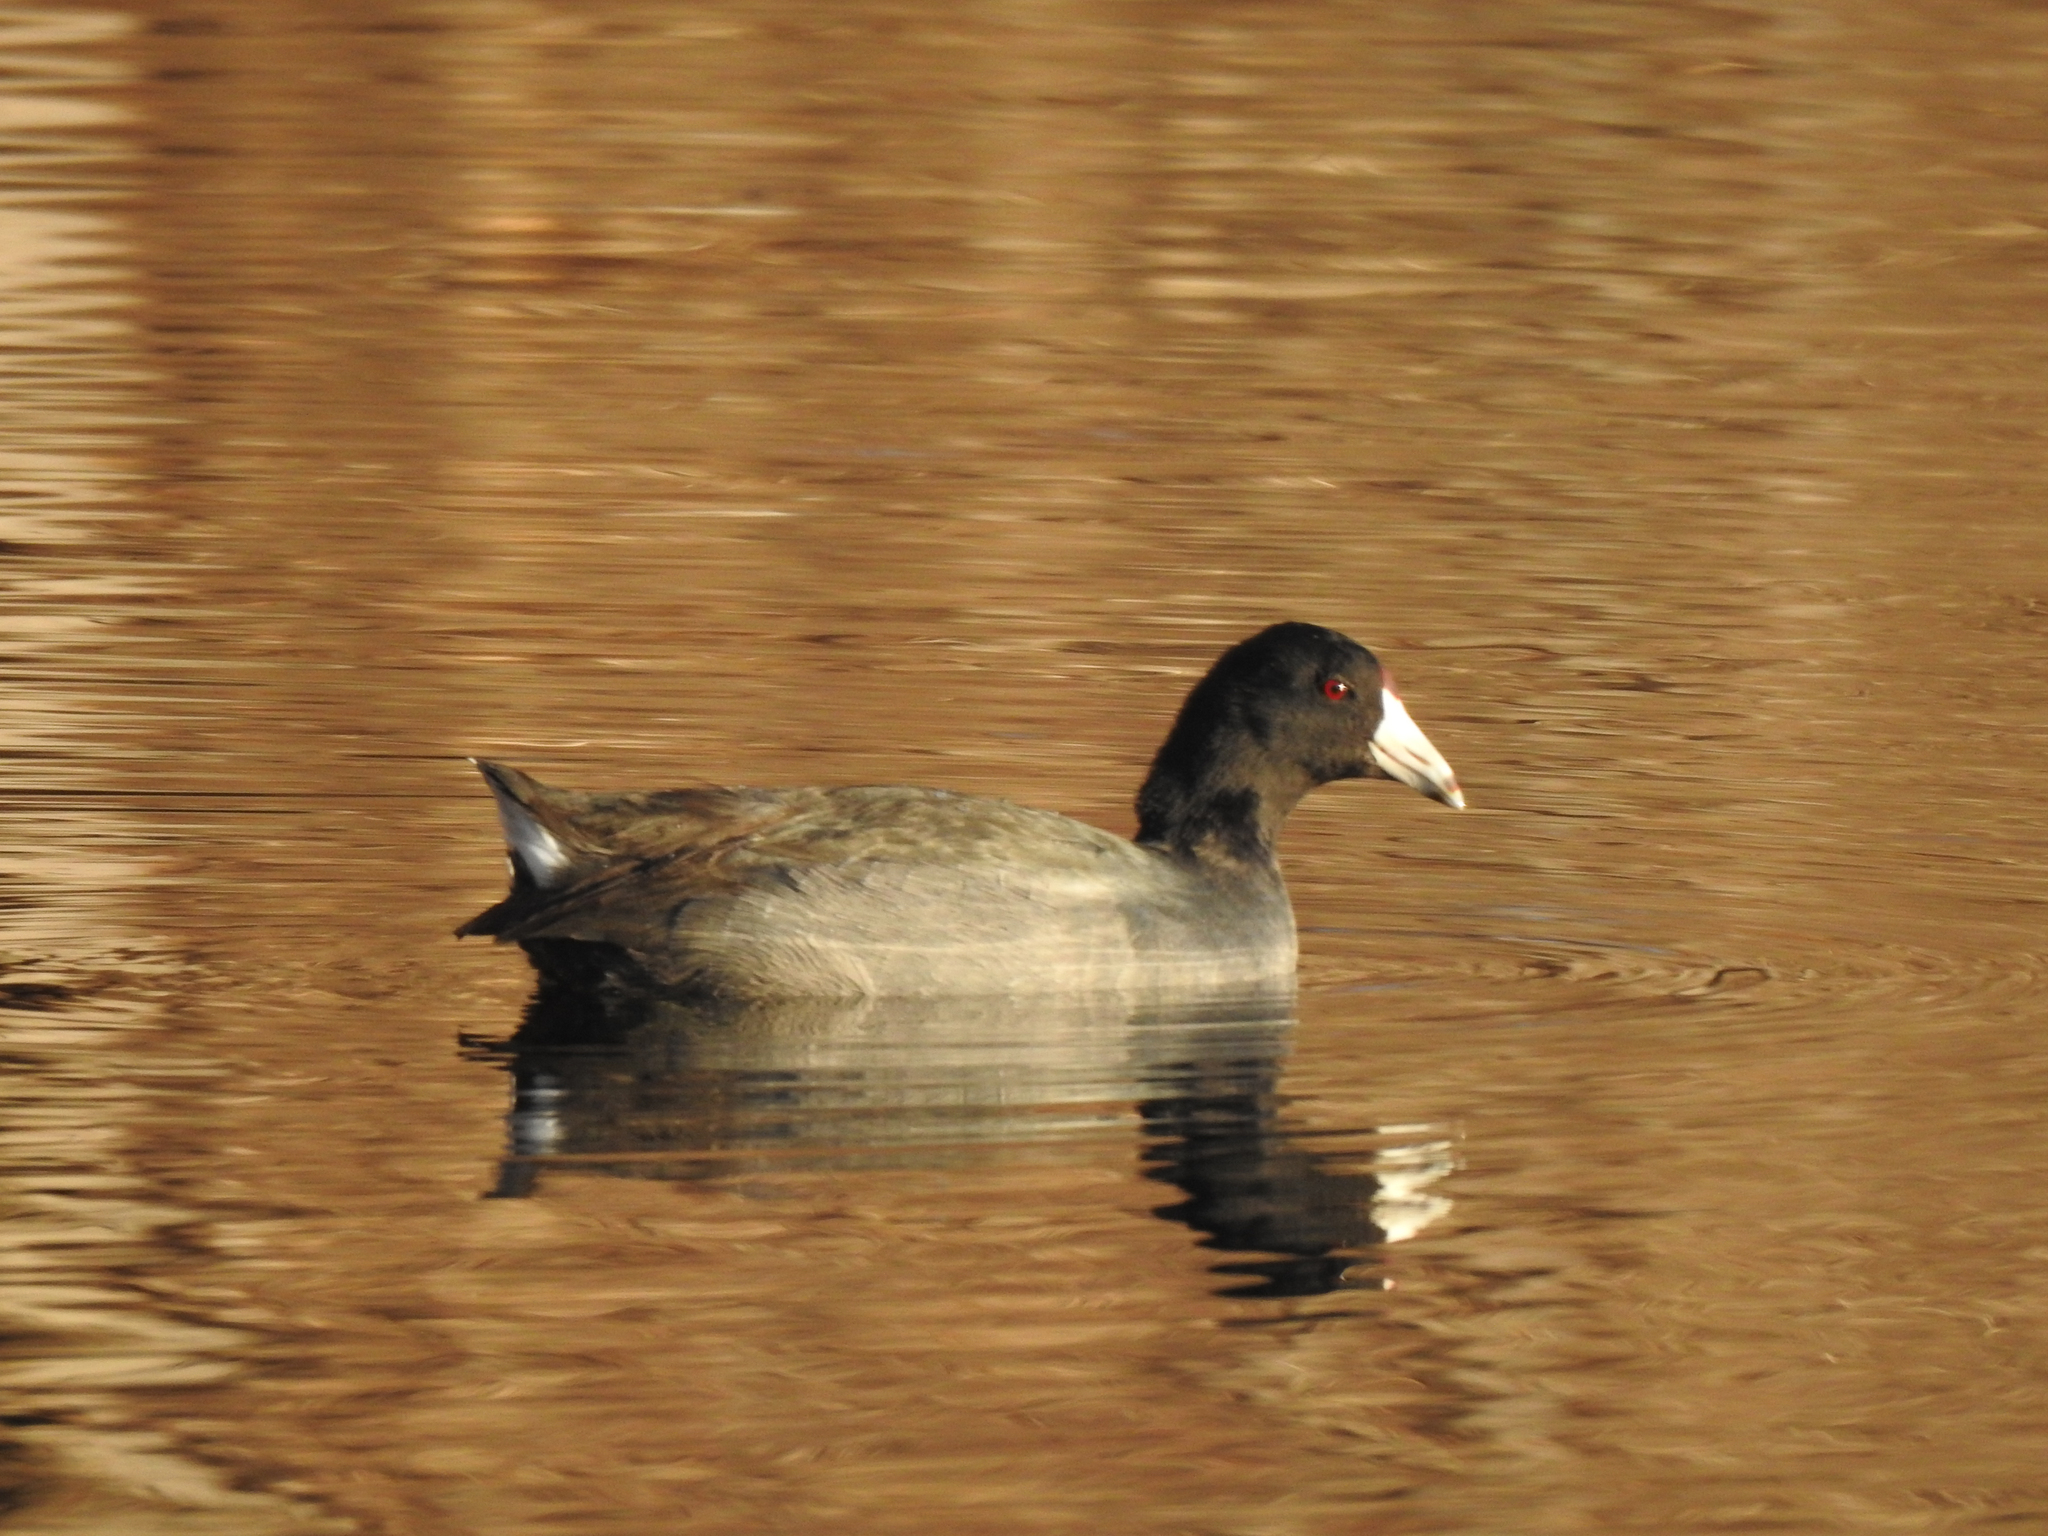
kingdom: Animalia
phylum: Chordata
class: Aves
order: Gruiformes
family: Rallidae
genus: Fulica
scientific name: Fulica americana
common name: American coot
